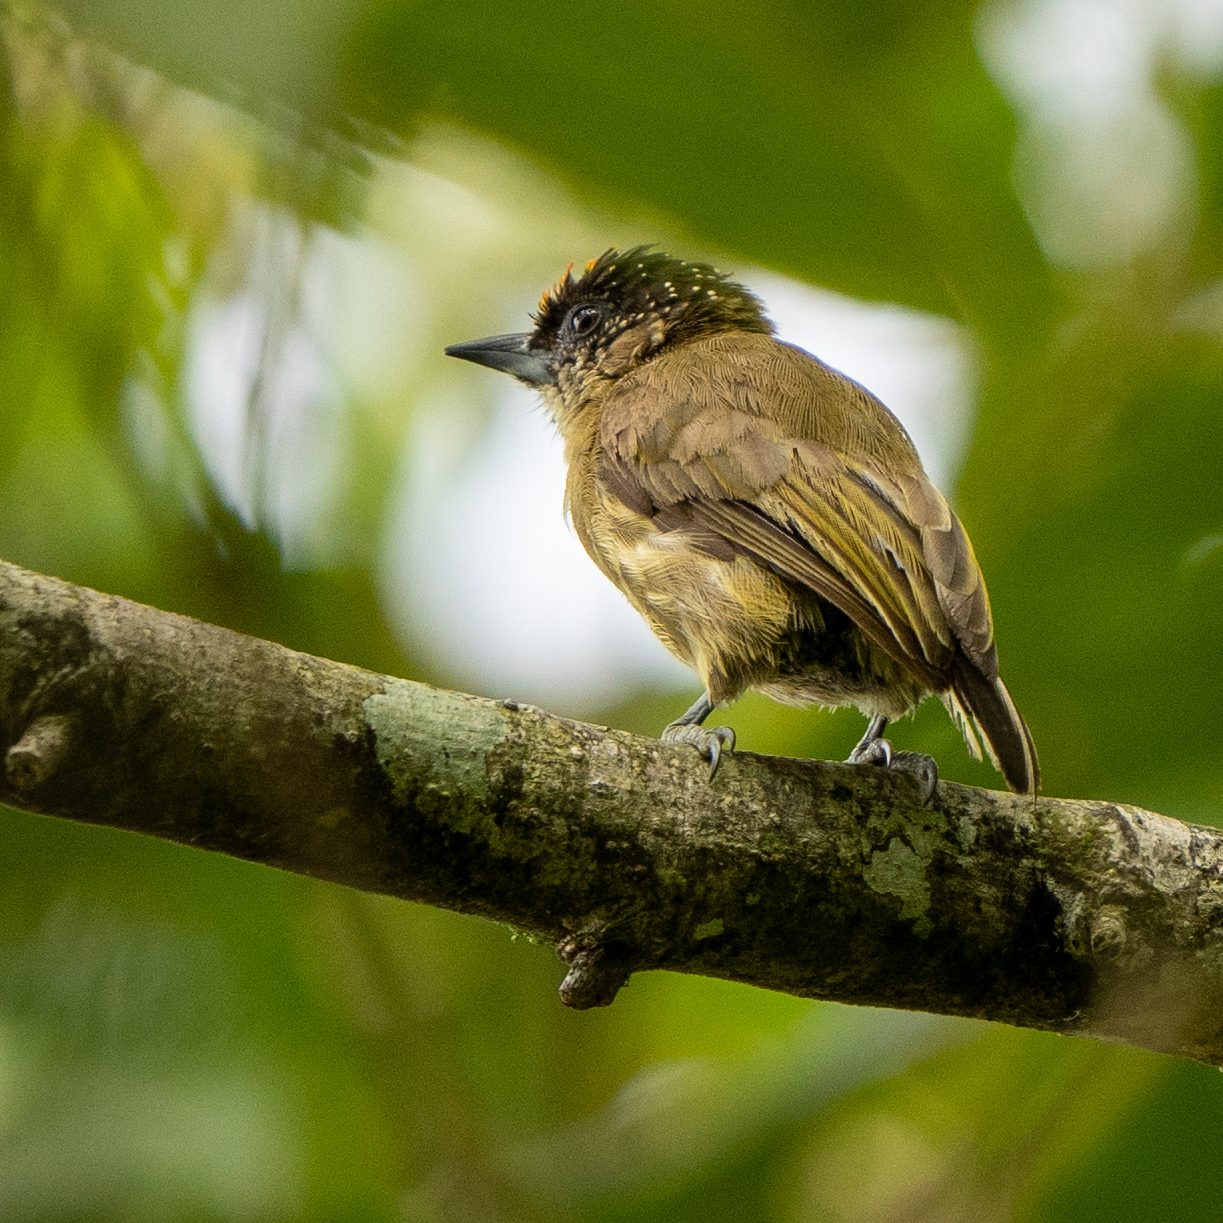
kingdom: Animalia
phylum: Chordata
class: Aves
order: Piciformes
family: Picidae
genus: Picumnus
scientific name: Picumnus olivaceus
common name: Olivaceous piculet
